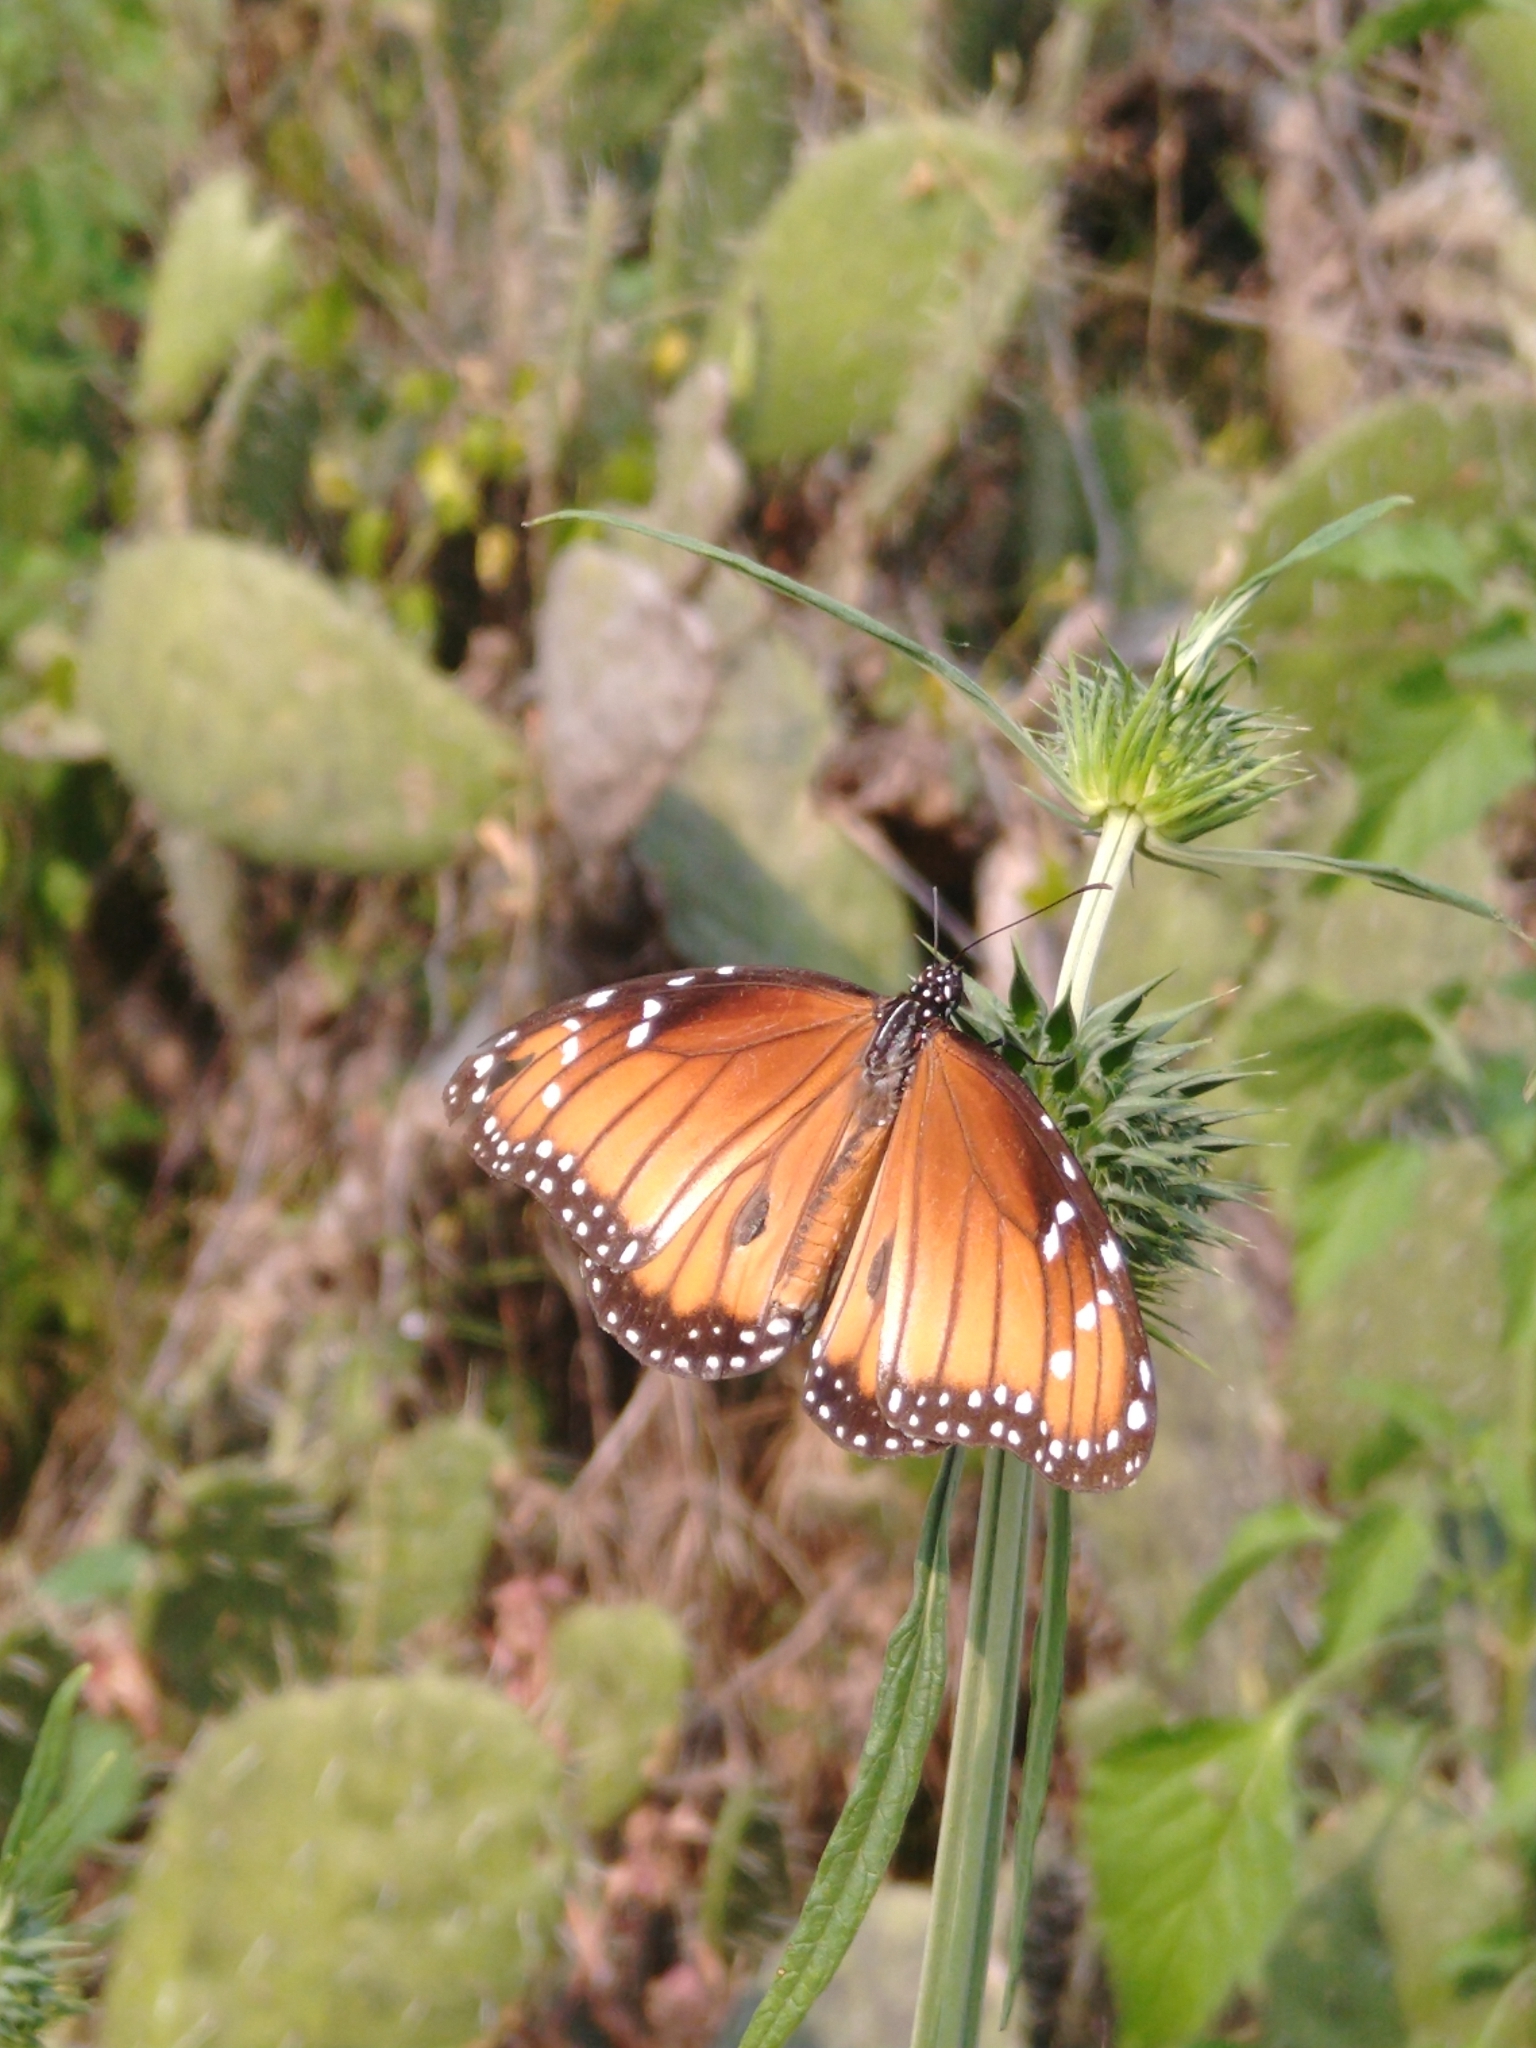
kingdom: Animalia
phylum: Arthropoda
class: Insecta
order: Lepidoptera
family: Nymphalidae
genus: Danaus
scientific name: Danaus eresimus
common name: Soldier
